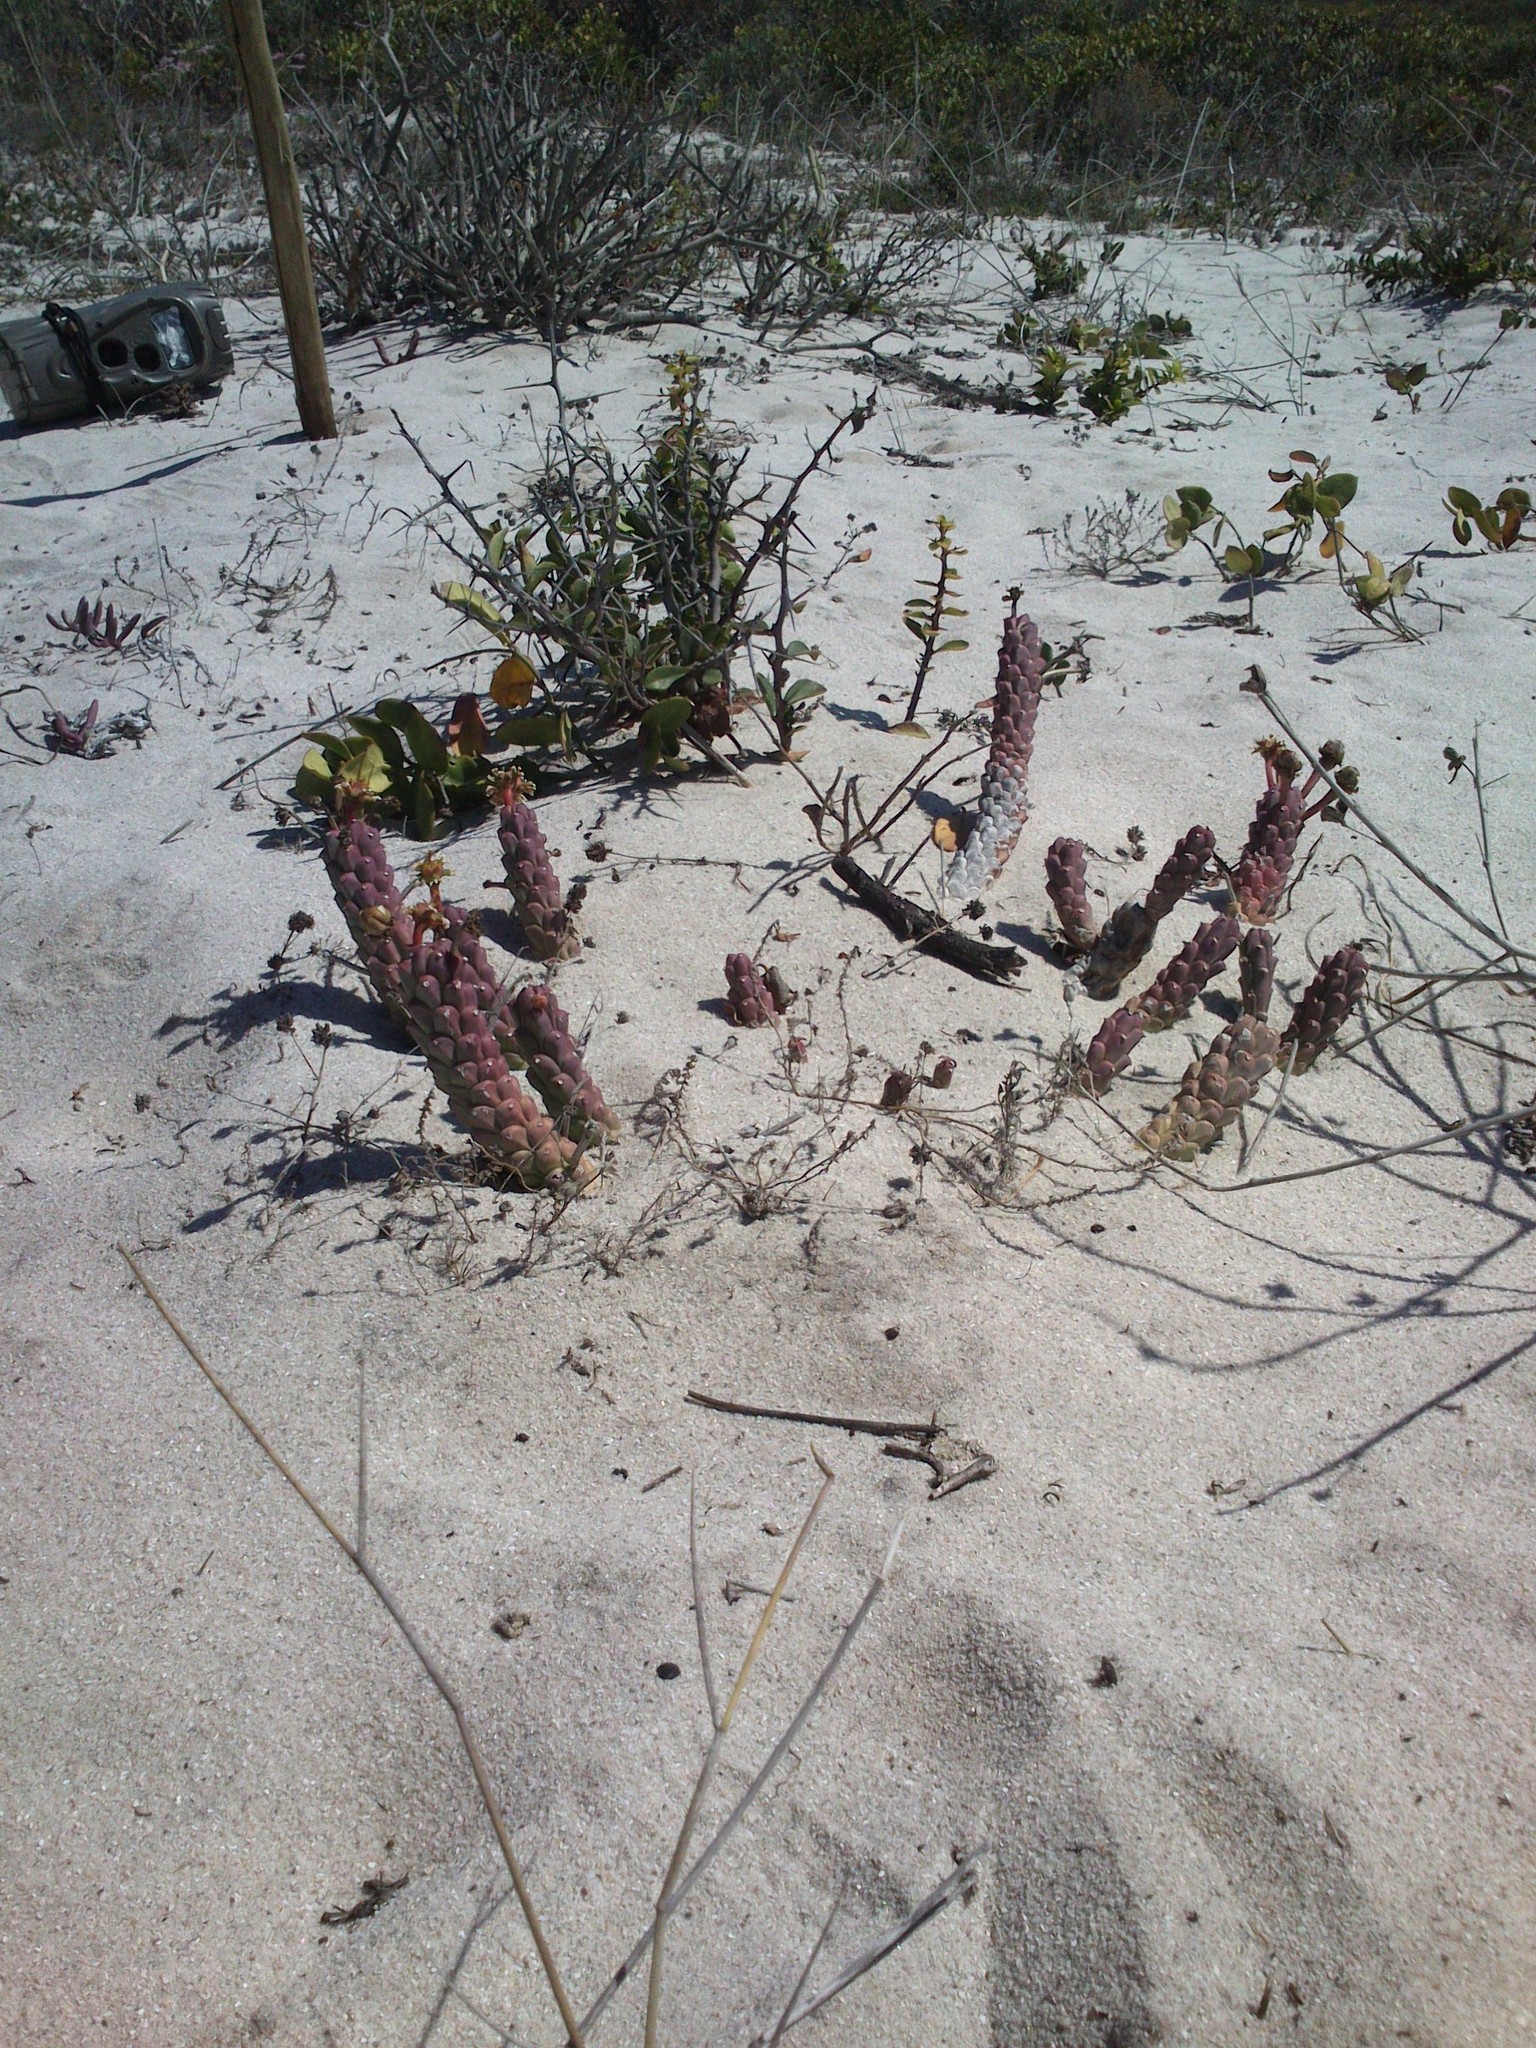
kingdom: Plantae
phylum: Tracheophyta
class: Magnoliopsida
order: Malpighiales
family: Euphorbiaceae
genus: Euphorbia
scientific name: Euphorbia caput-medusae
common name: Medusa's-head
